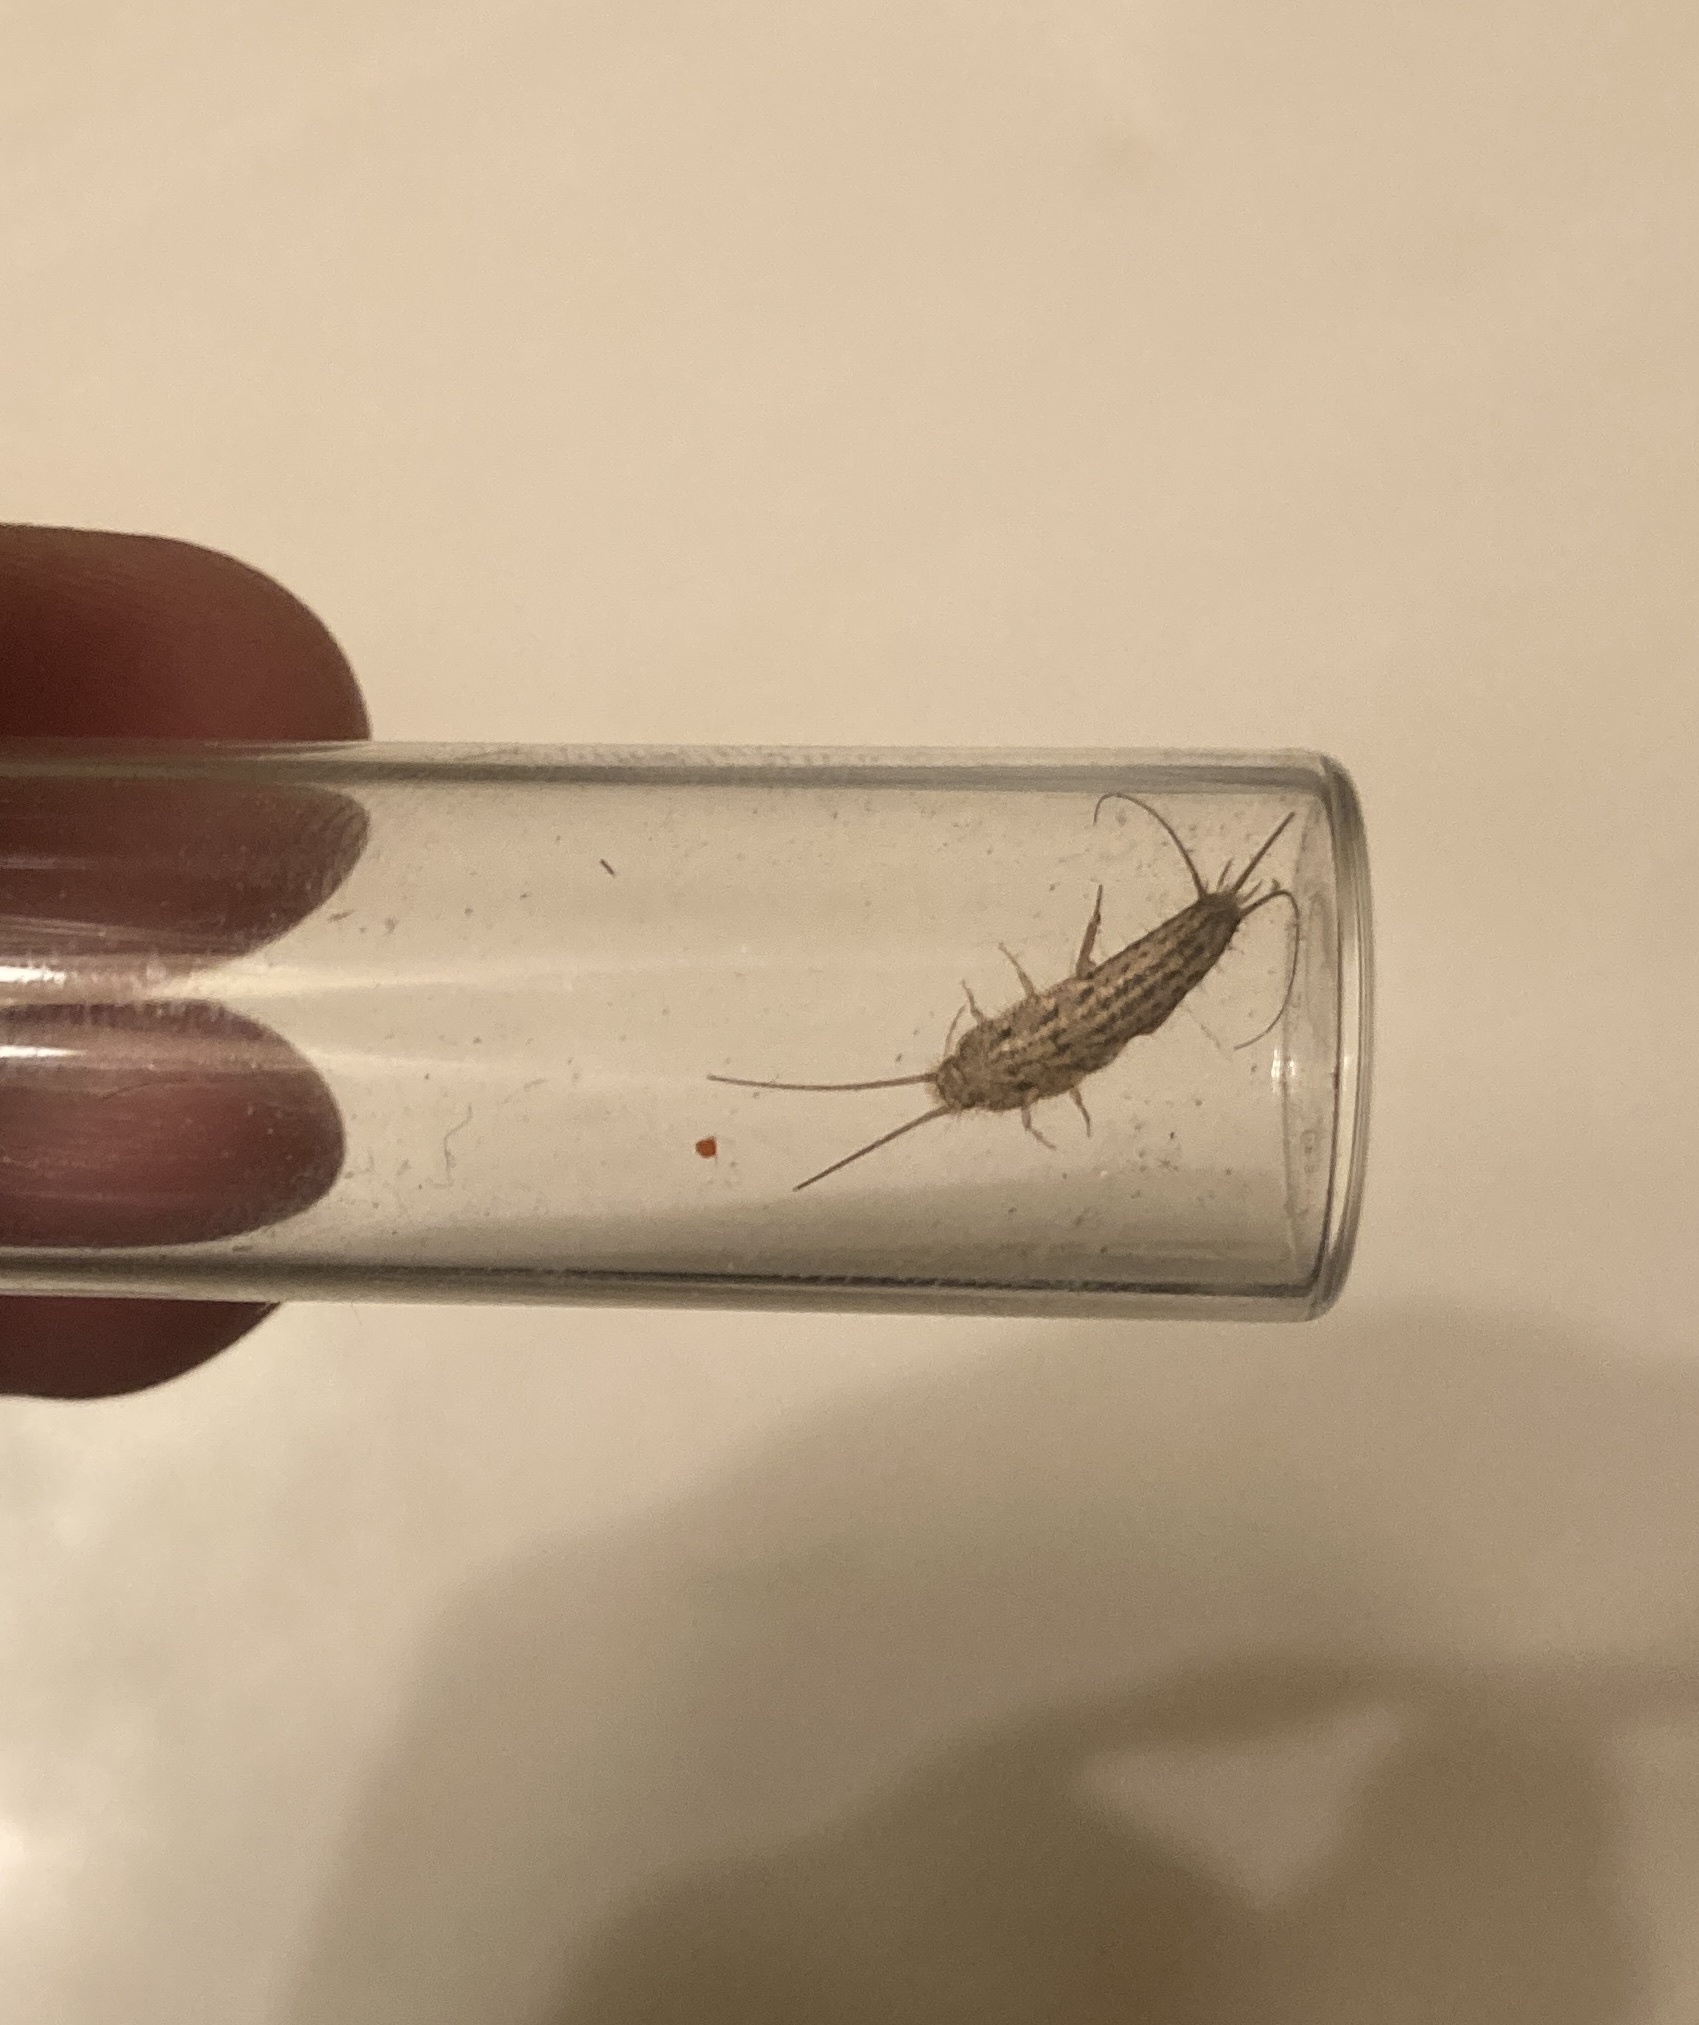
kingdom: Animalia
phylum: Arthropoda
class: Insecta
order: Zygentoma
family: Lepismatidae
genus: Ctenolepisma
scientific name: Ctenolepisma lineata
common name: Four-lined silverfish
